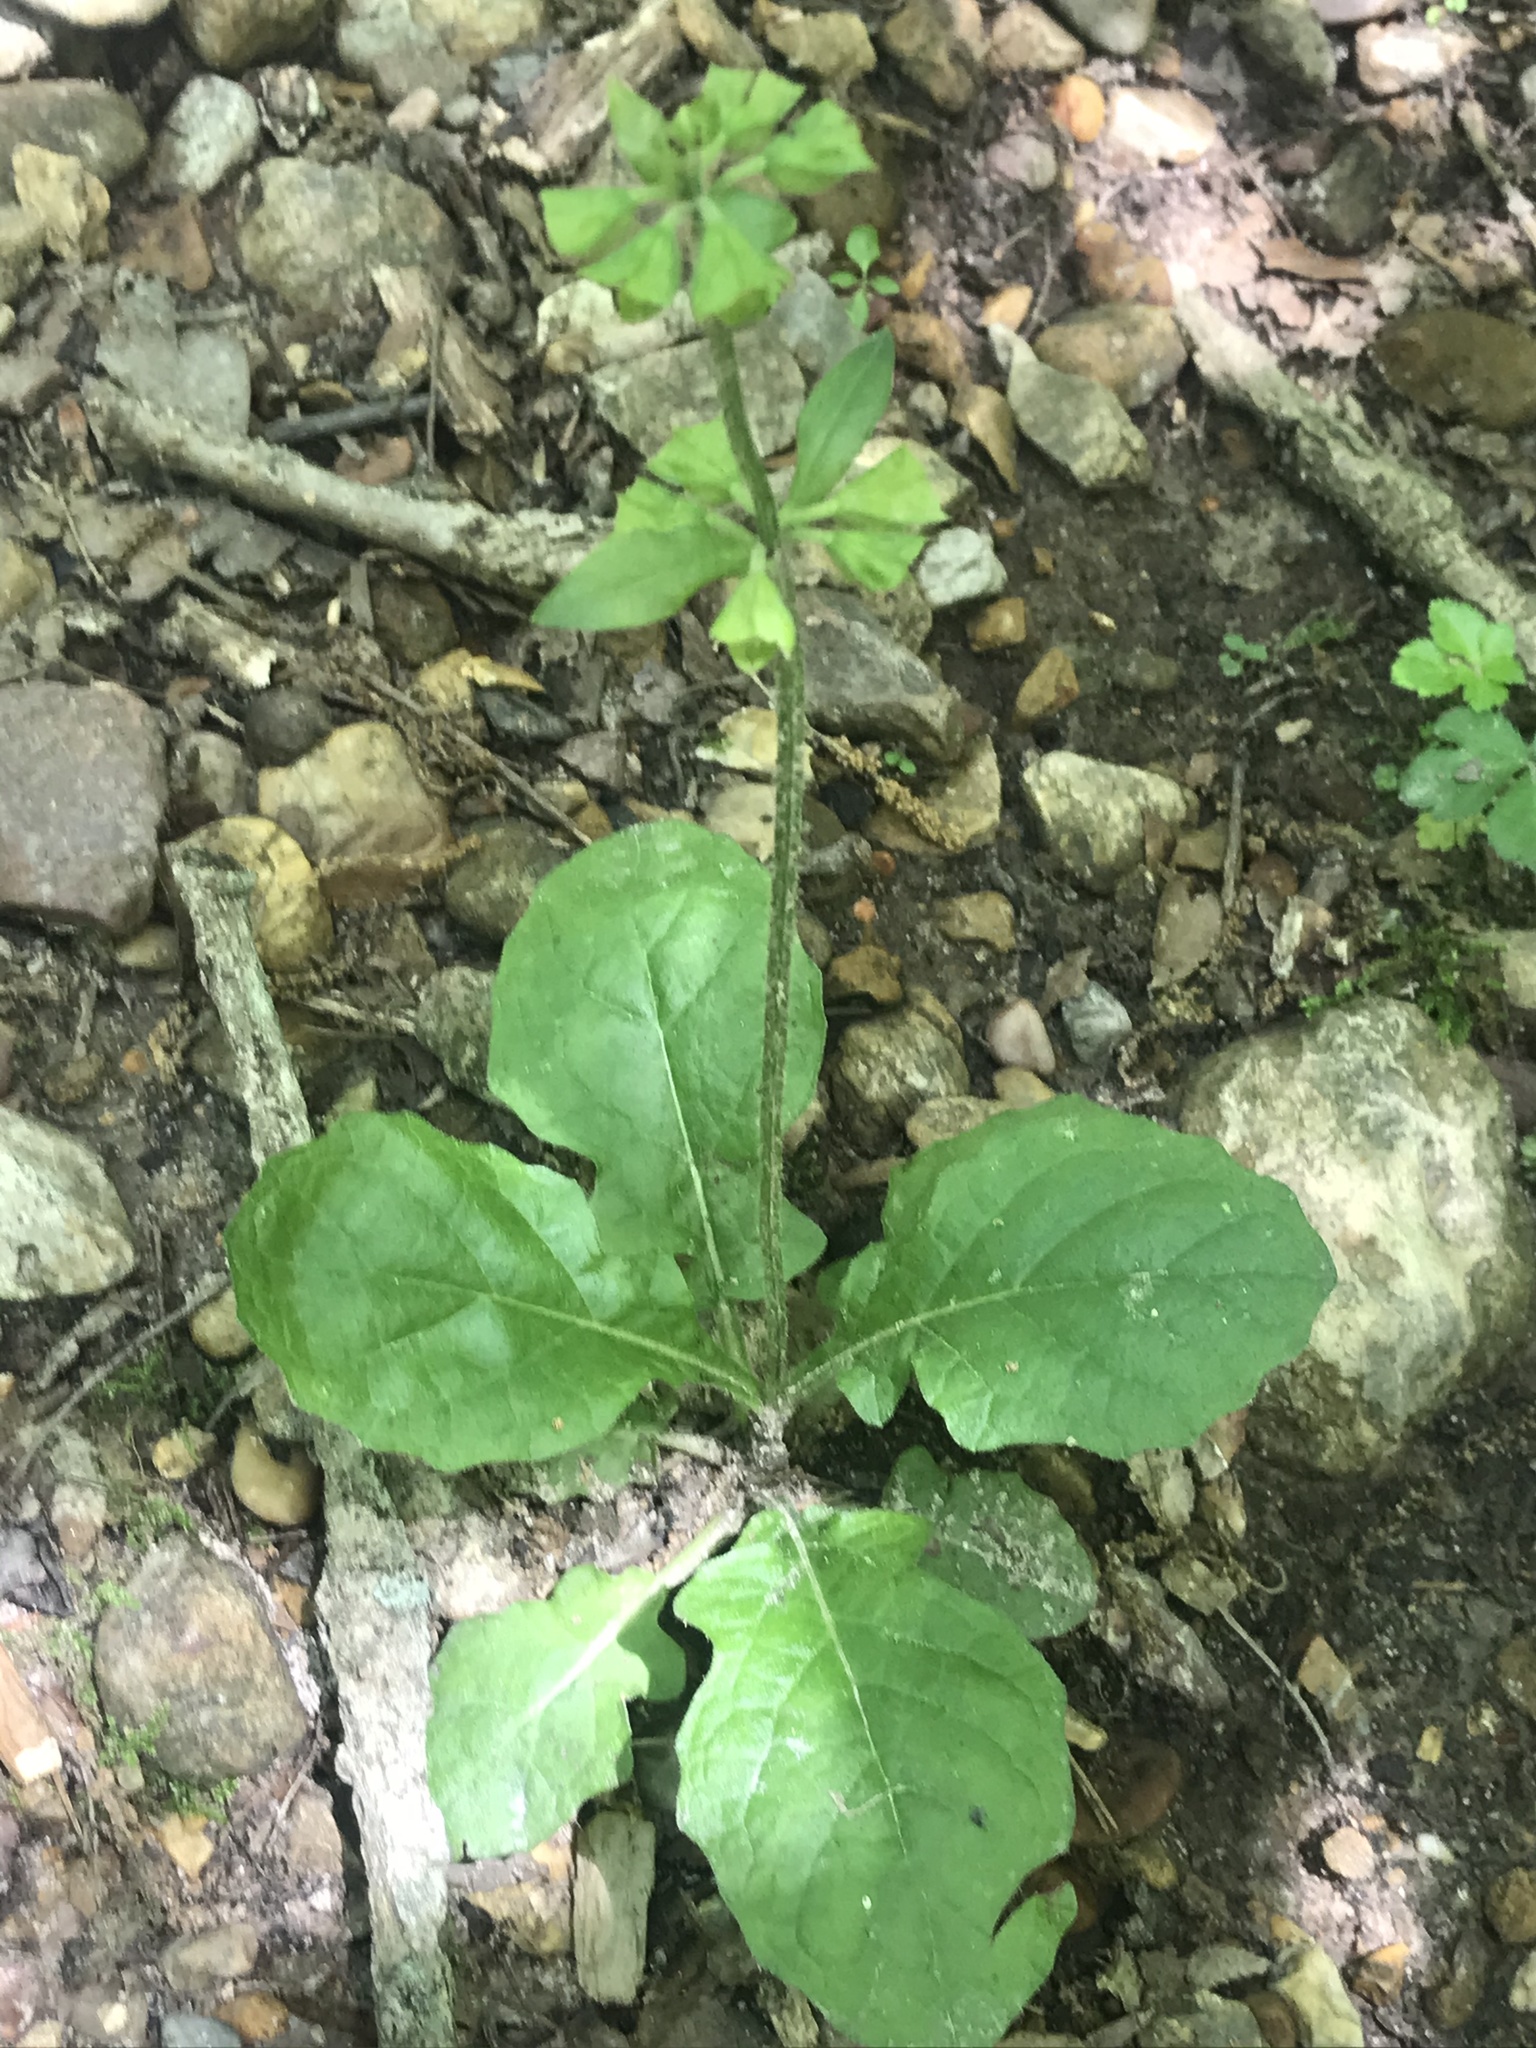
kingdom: Plantae
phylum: Tracheophyta
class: Magnoliopsida
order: Lamiales
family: Lamiaceae
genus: Salvia
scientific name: Salvia lyrata
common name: Cancerweed
